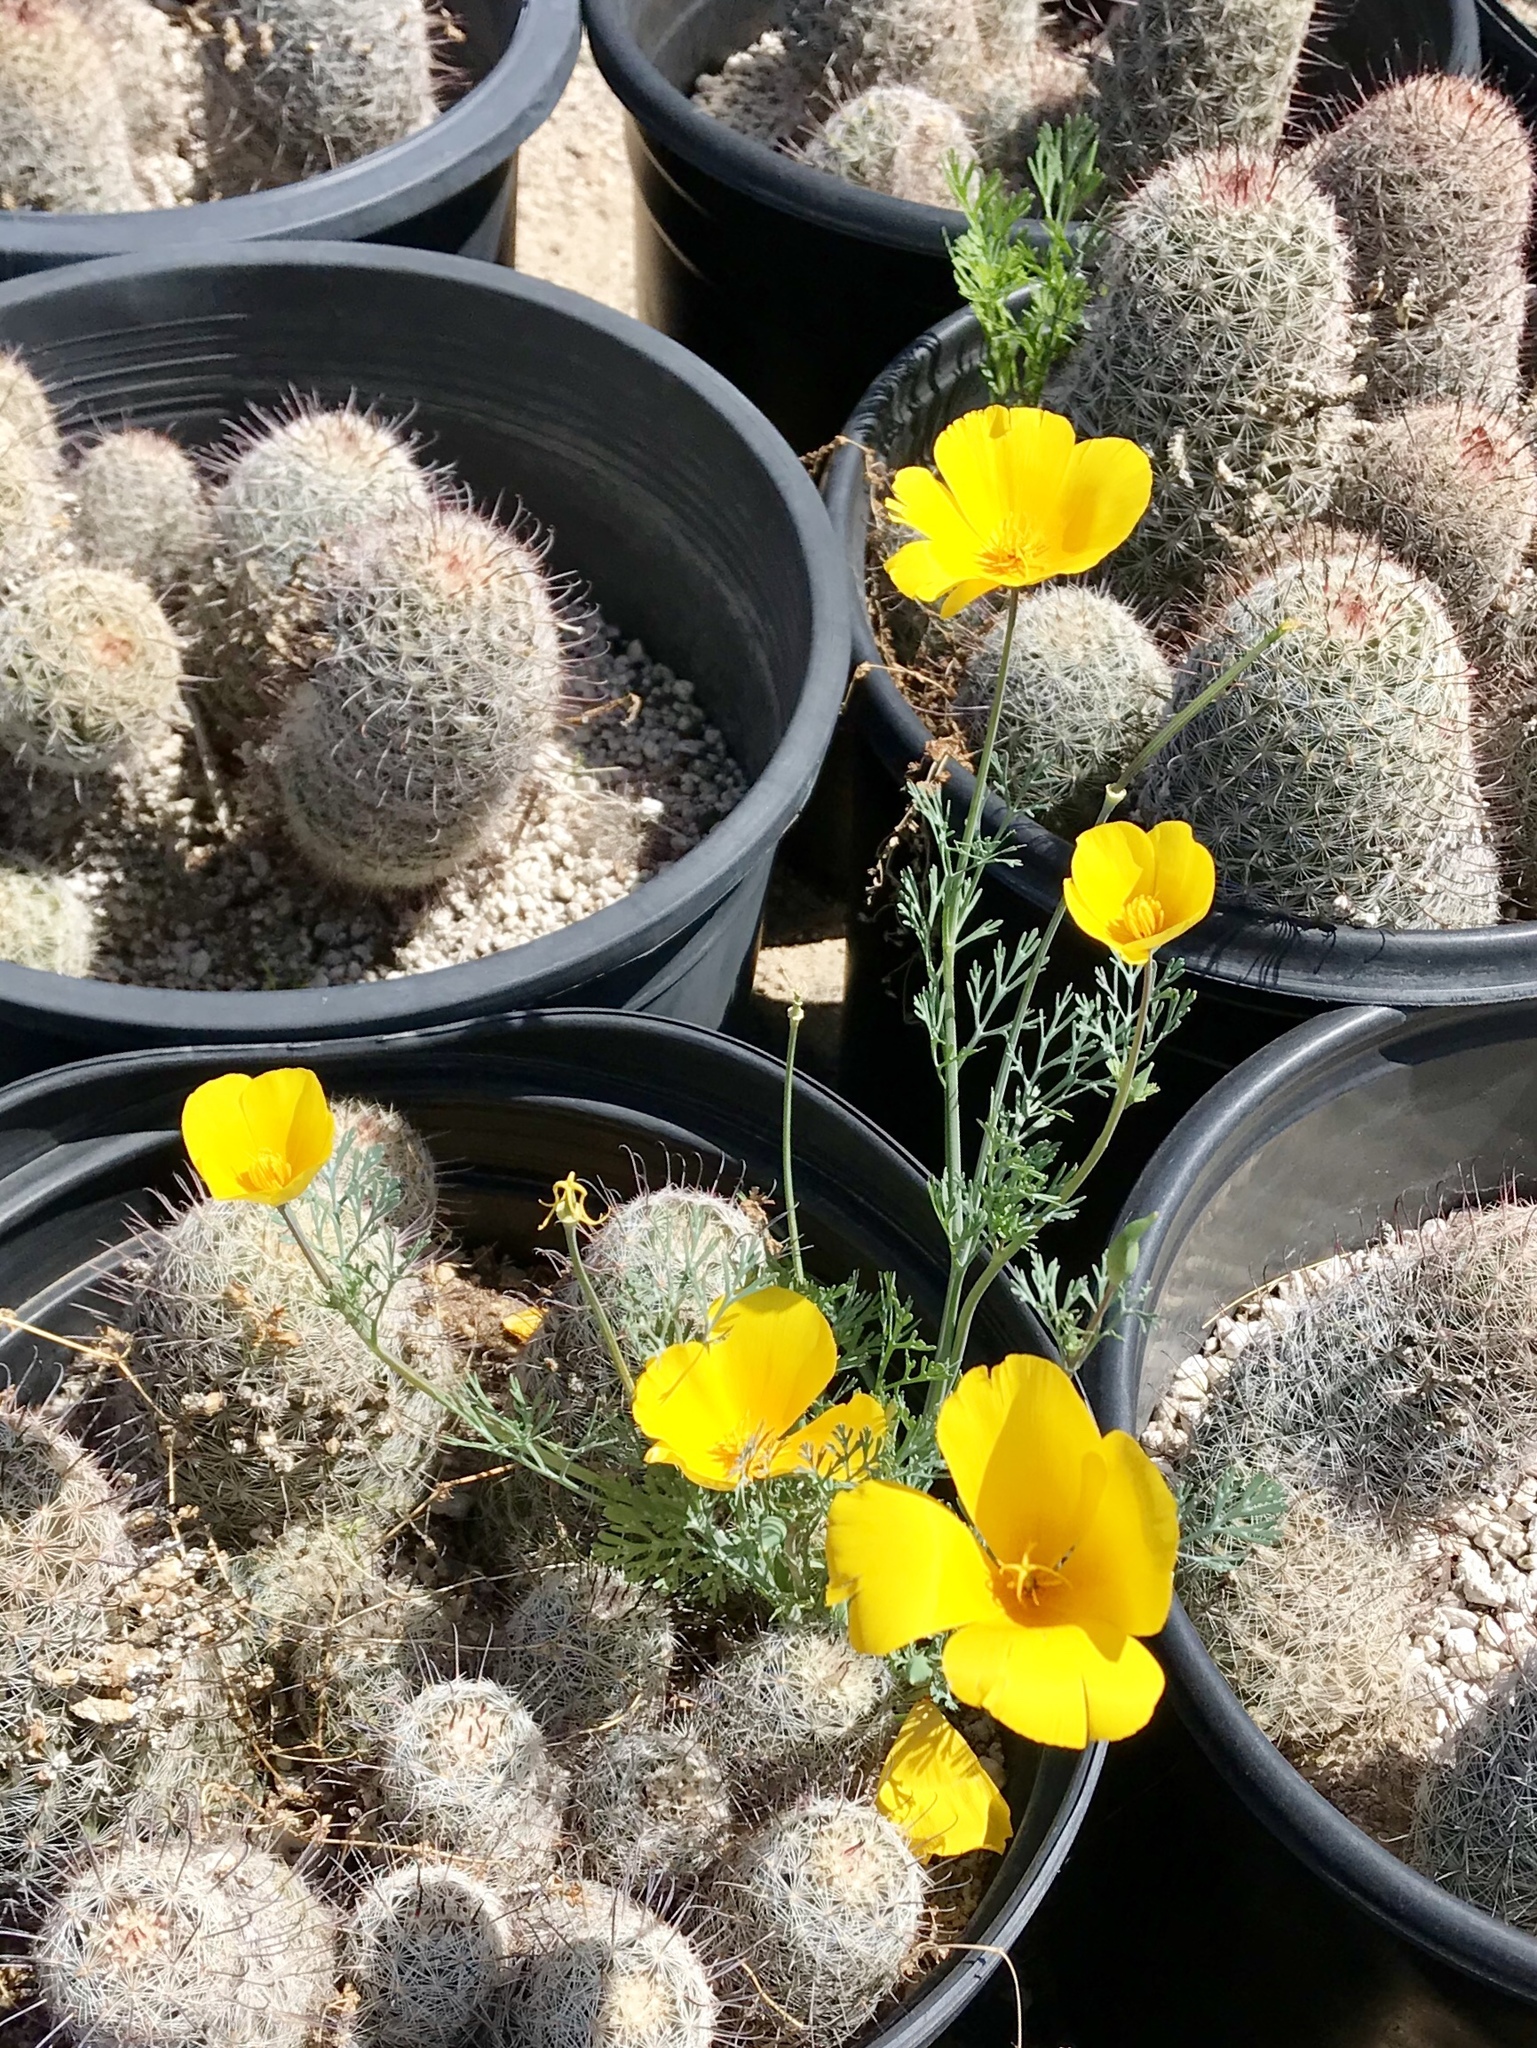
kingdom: Plantae
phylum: Tracheophyta
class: Magnoliopsida
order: Ranunculales
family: Papaveraceae
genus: Eschscholzia
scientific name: Eschscholzia californica
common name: California poppy
